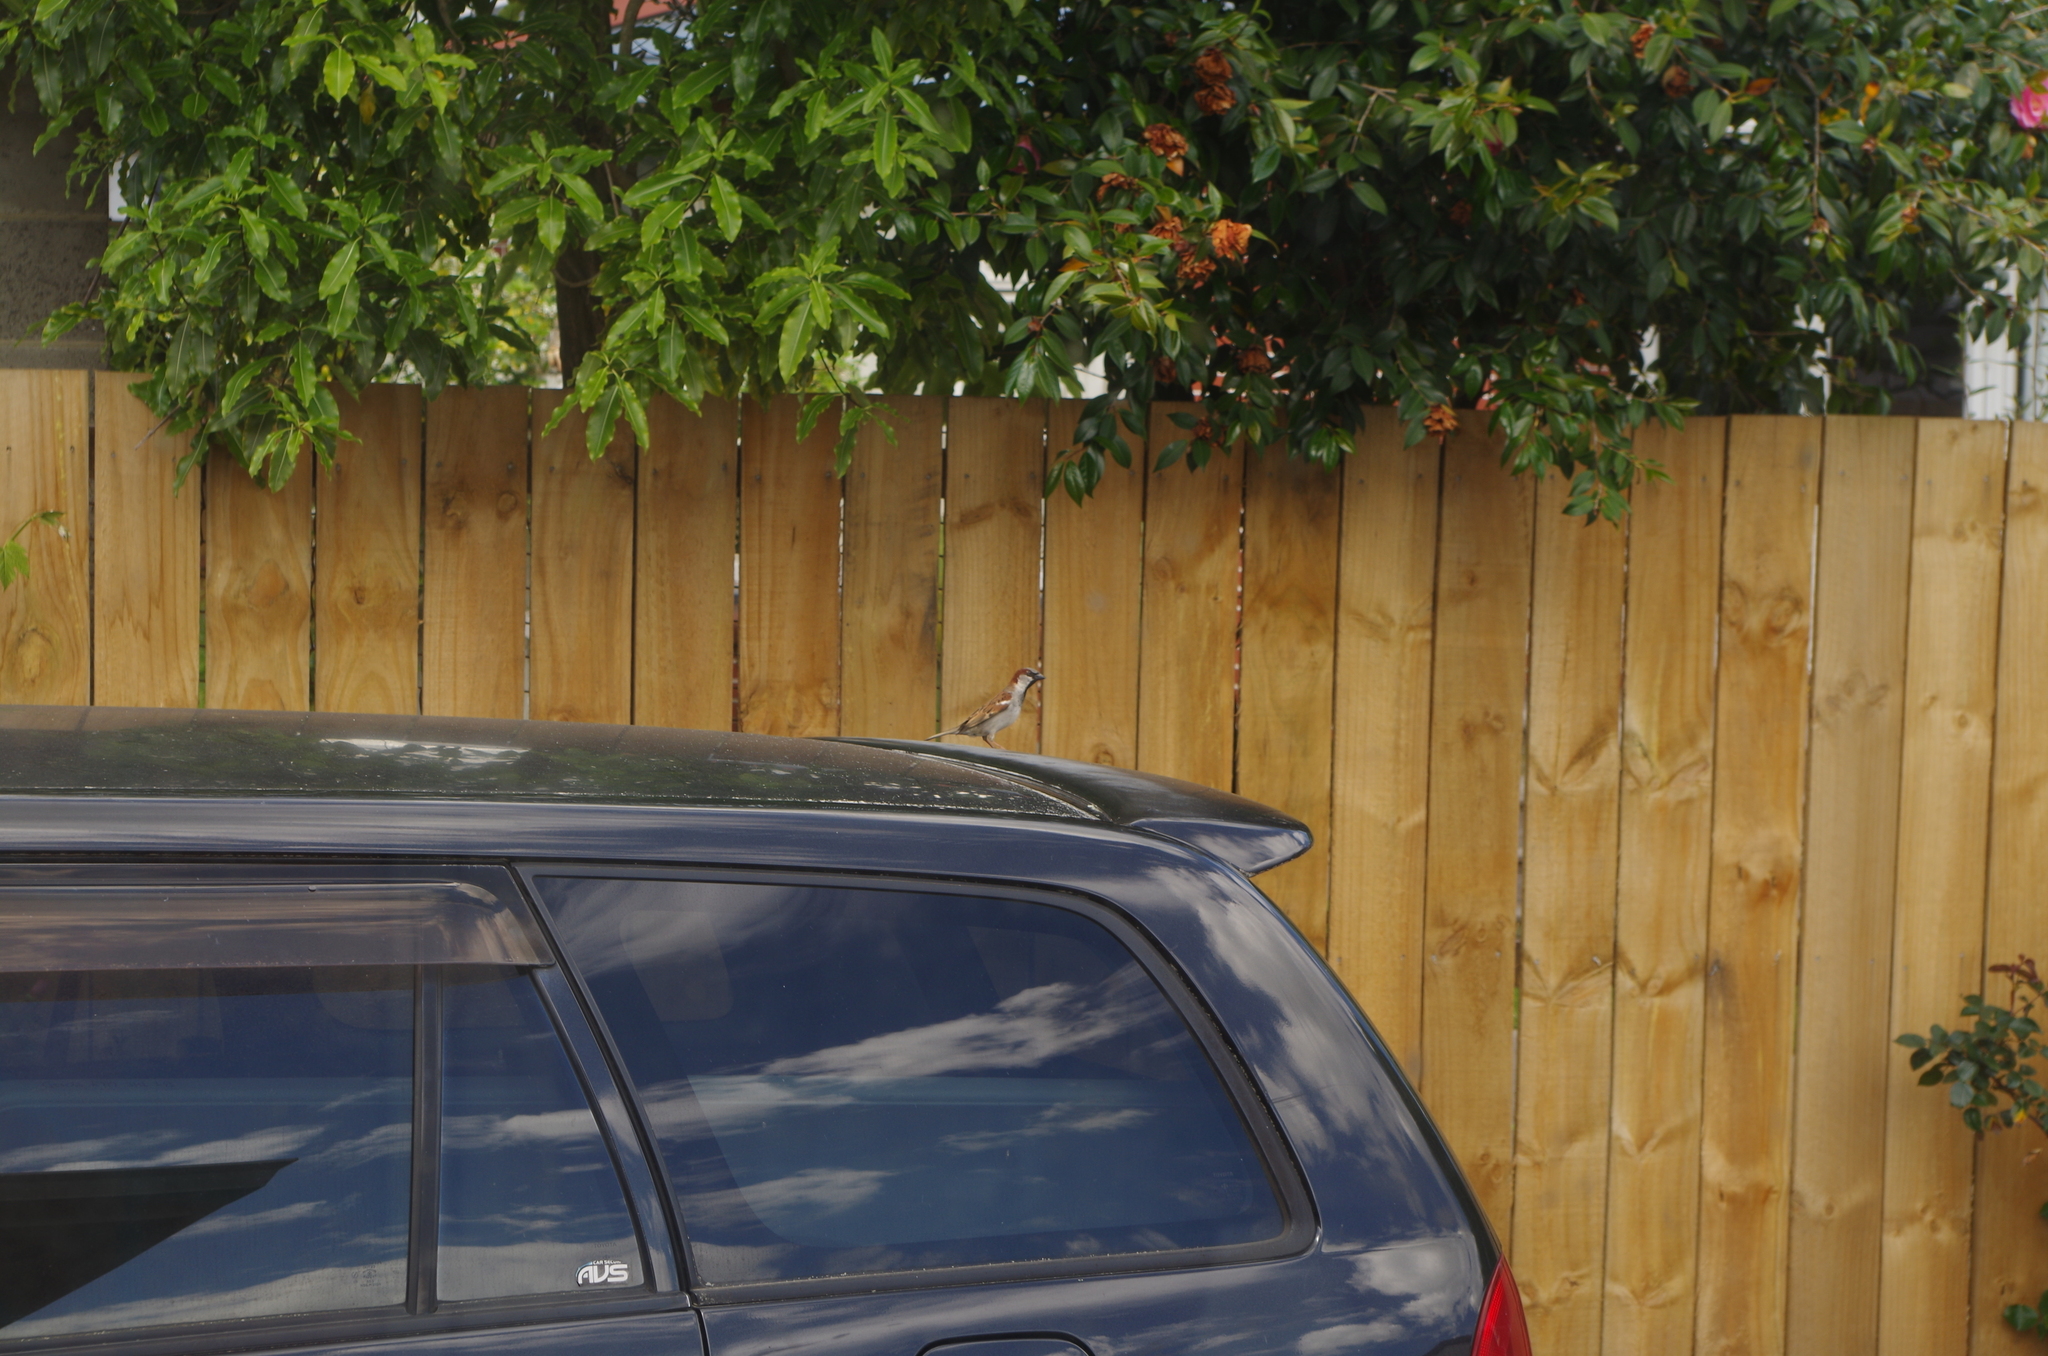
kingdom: Animalia
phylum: Chordata
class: Aves
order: Passeriformes
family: Passeridae
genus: Passer
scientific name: Passer domesticus
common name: House sparrow
